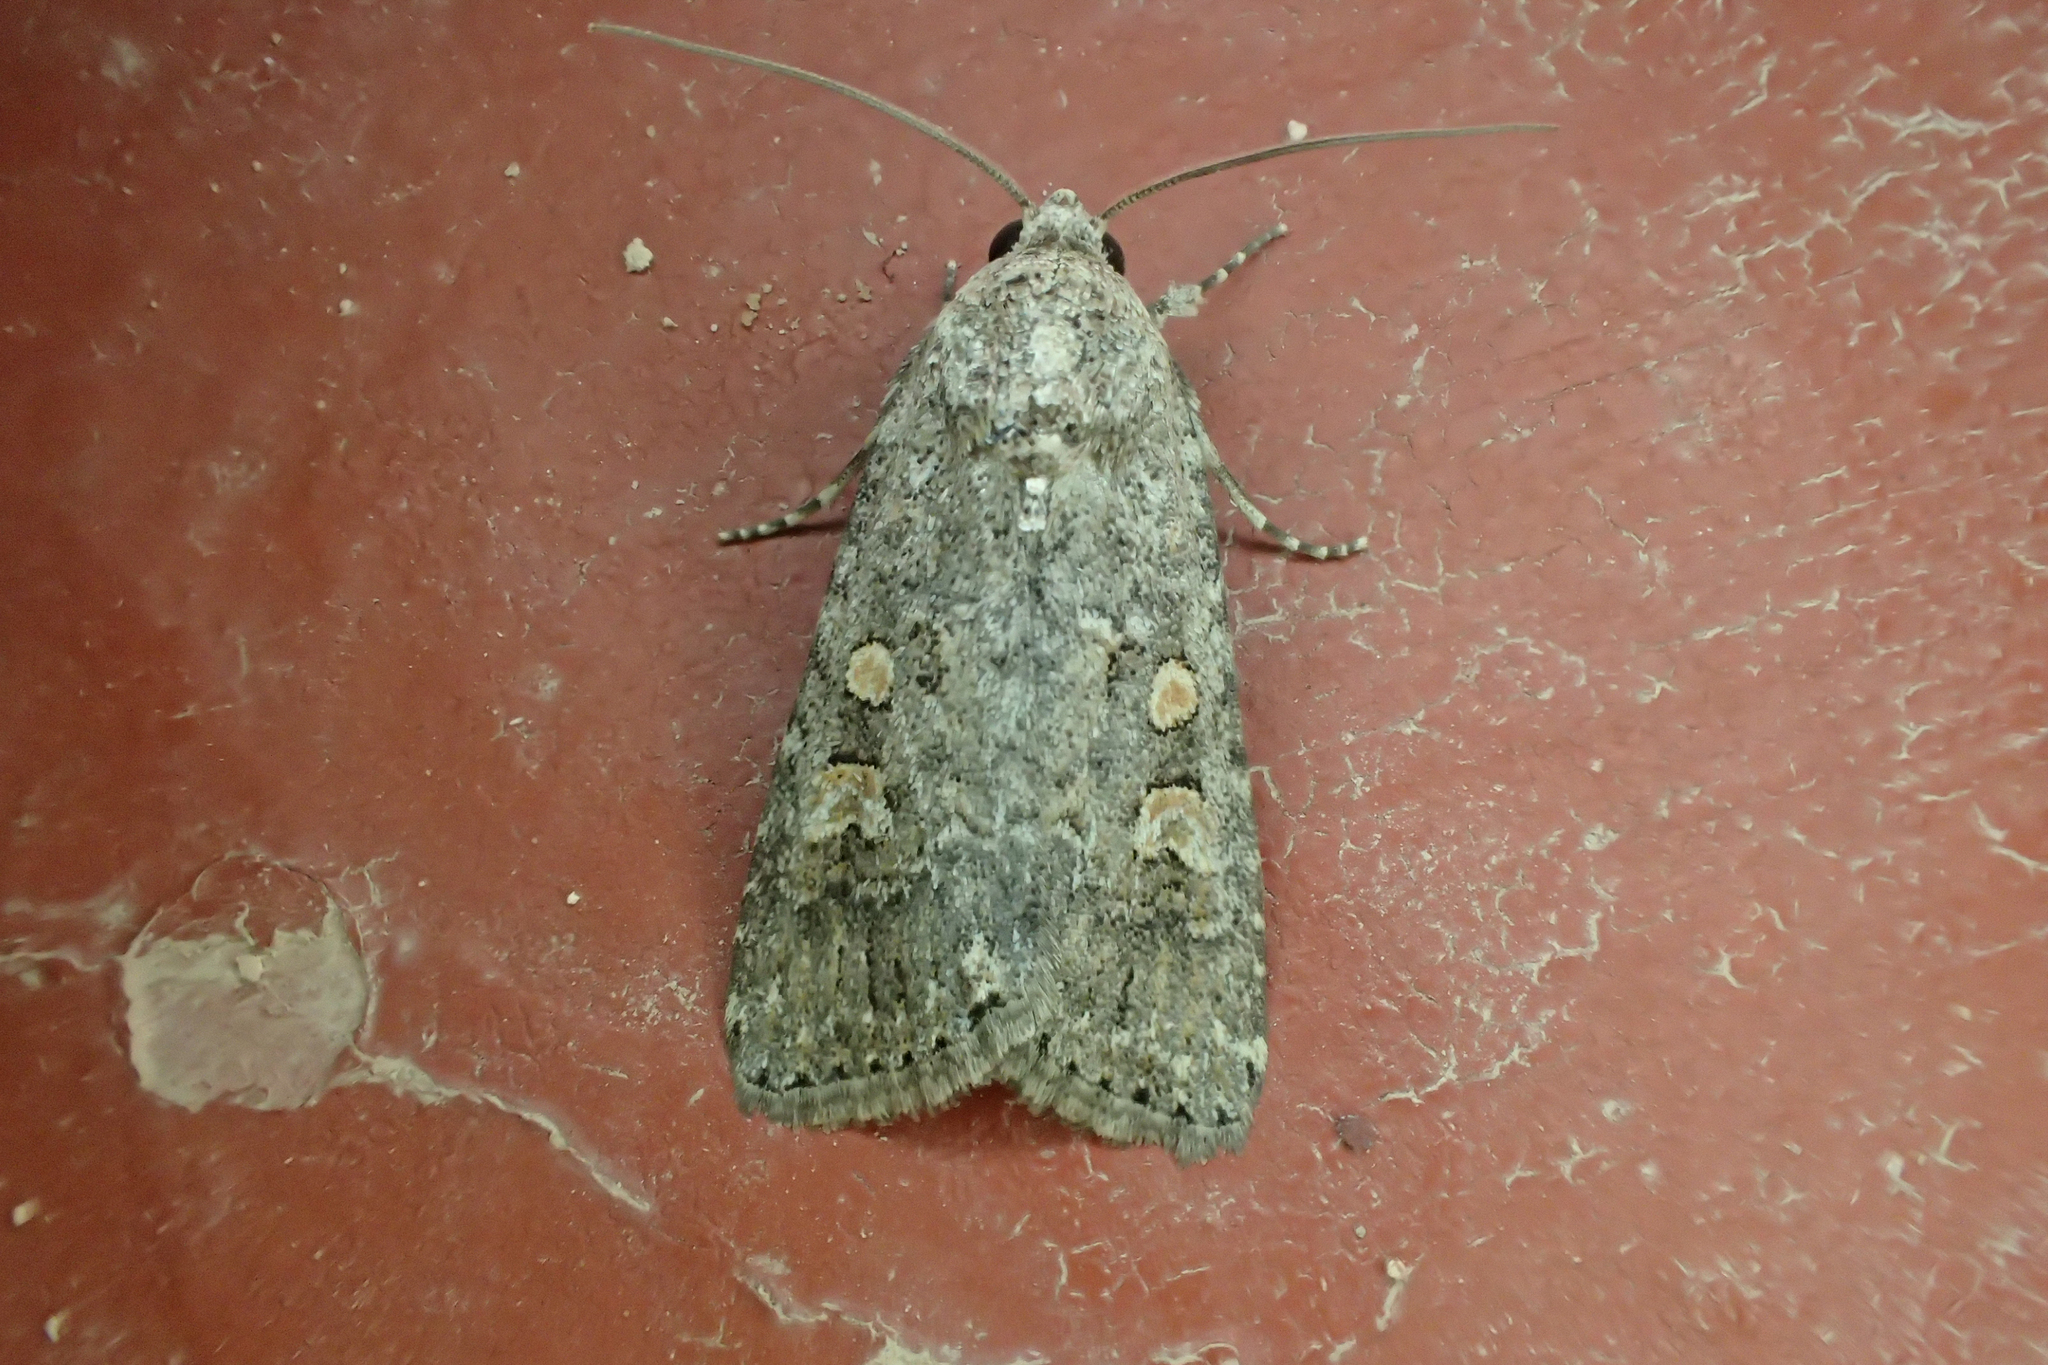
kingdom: Animalia
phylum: Arthropoda
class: Insecta
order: Lepidoptera
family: Noctuidae
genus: Spodoptera
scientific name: Spodoptera exigua
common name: Beet armyworm
